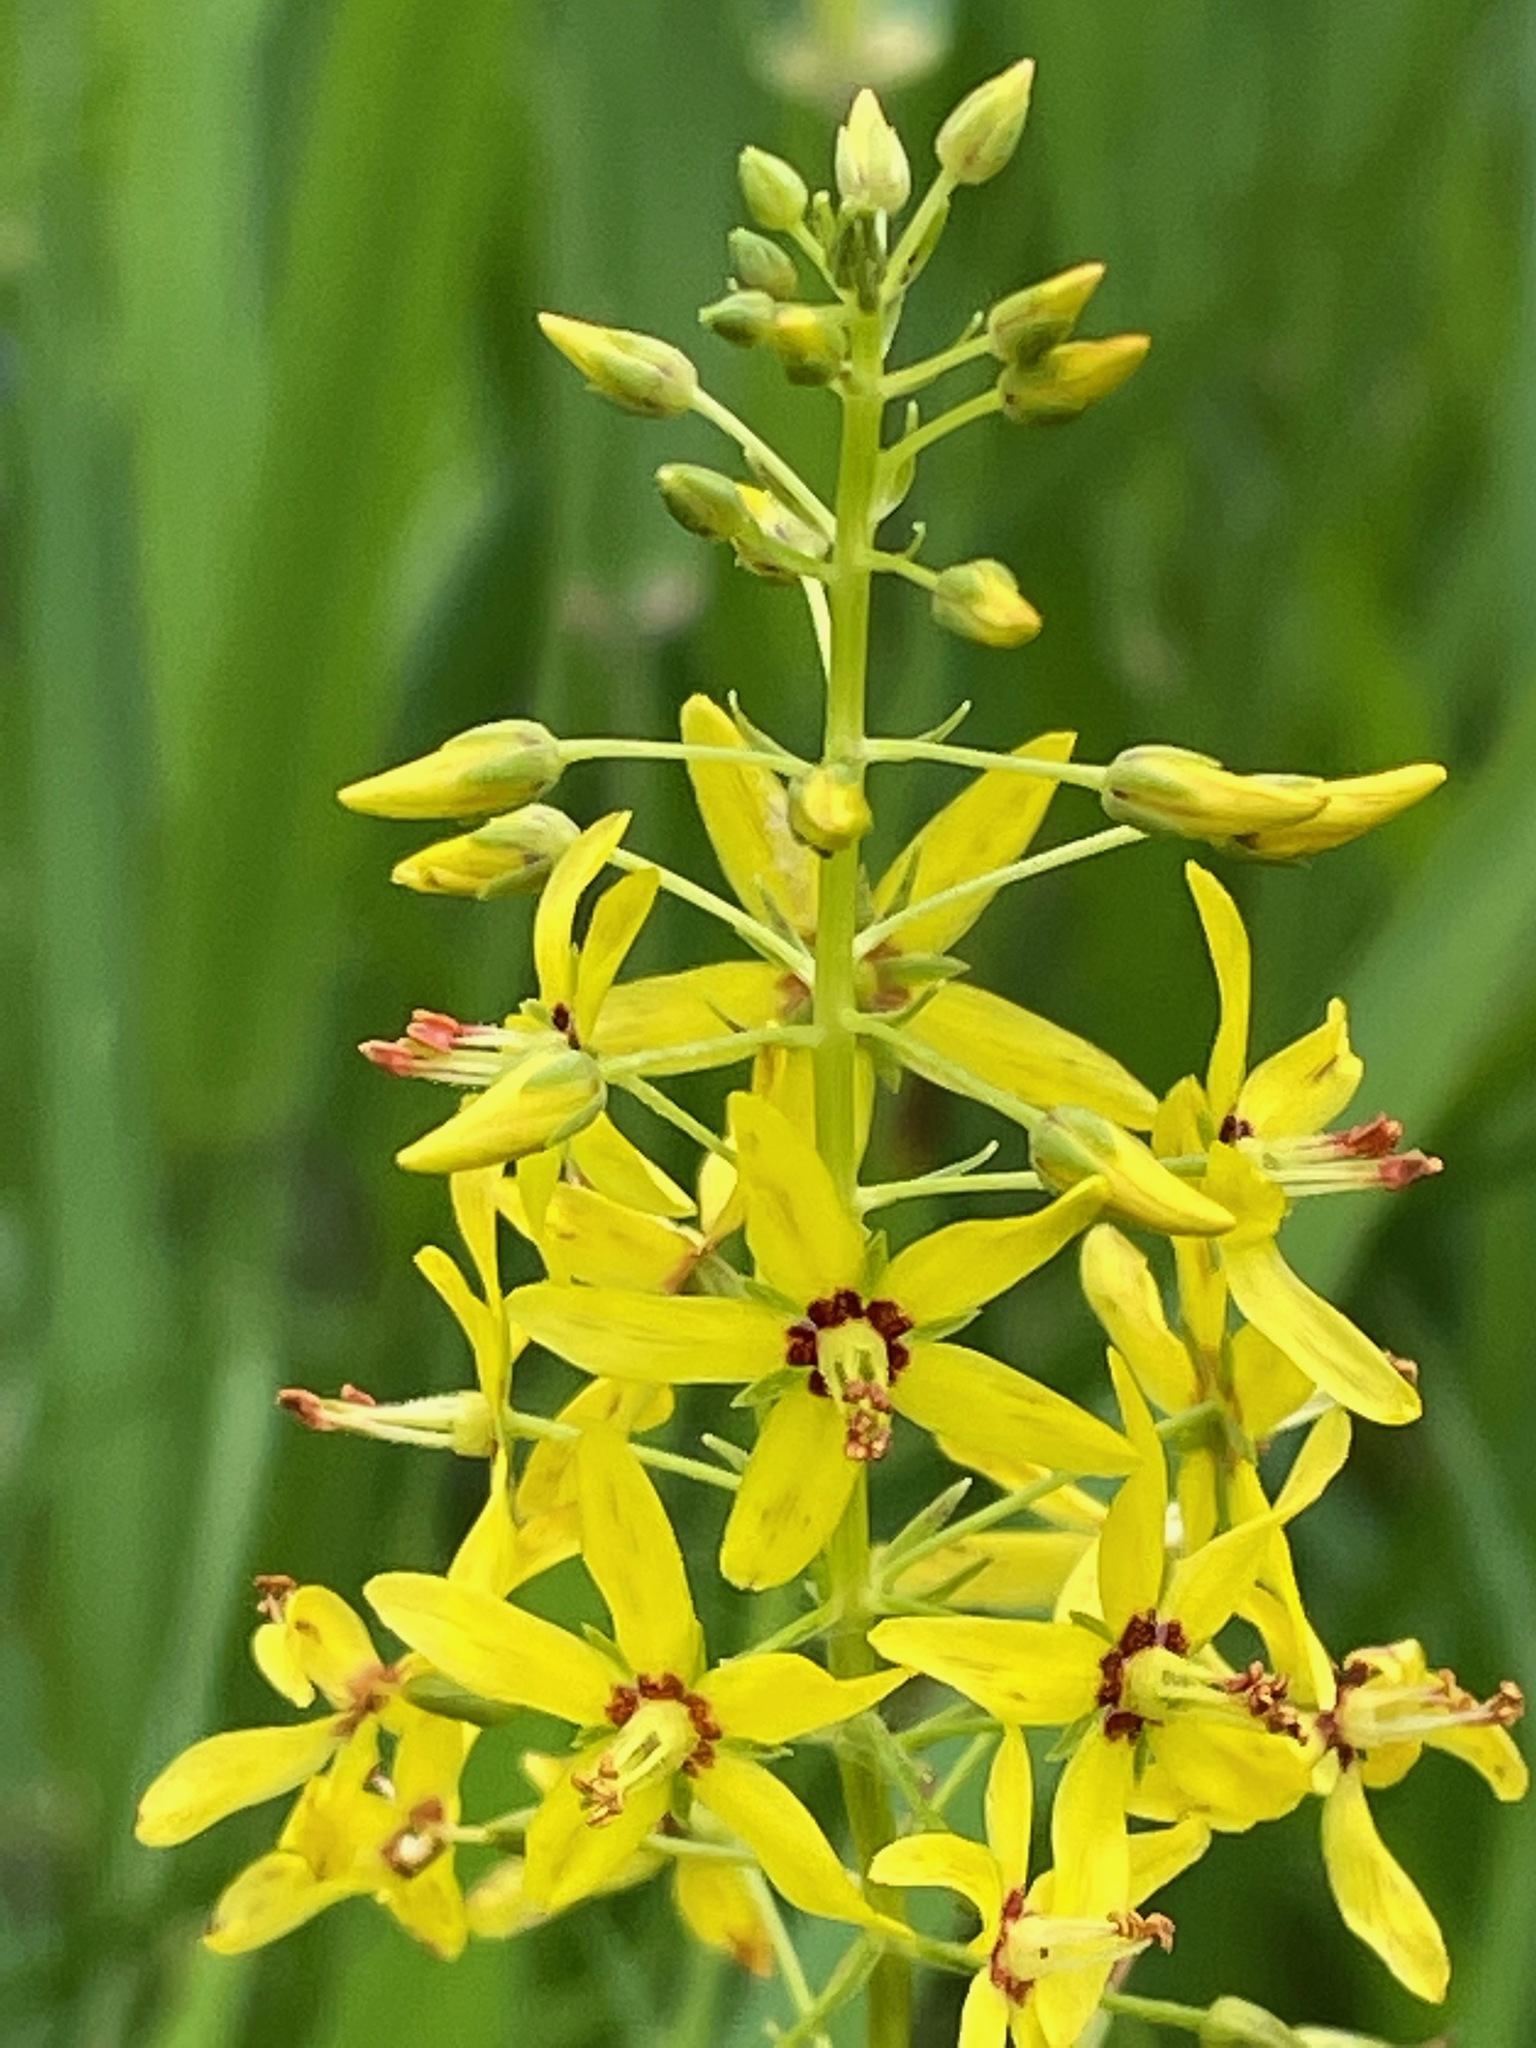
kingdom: Plantae
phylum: Tracheophyta
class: Magnoliopsida
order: Ericales
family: Primulaceae
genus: Lysimachia
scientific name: Lysimachia terrestris
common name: Lake loosestrife
